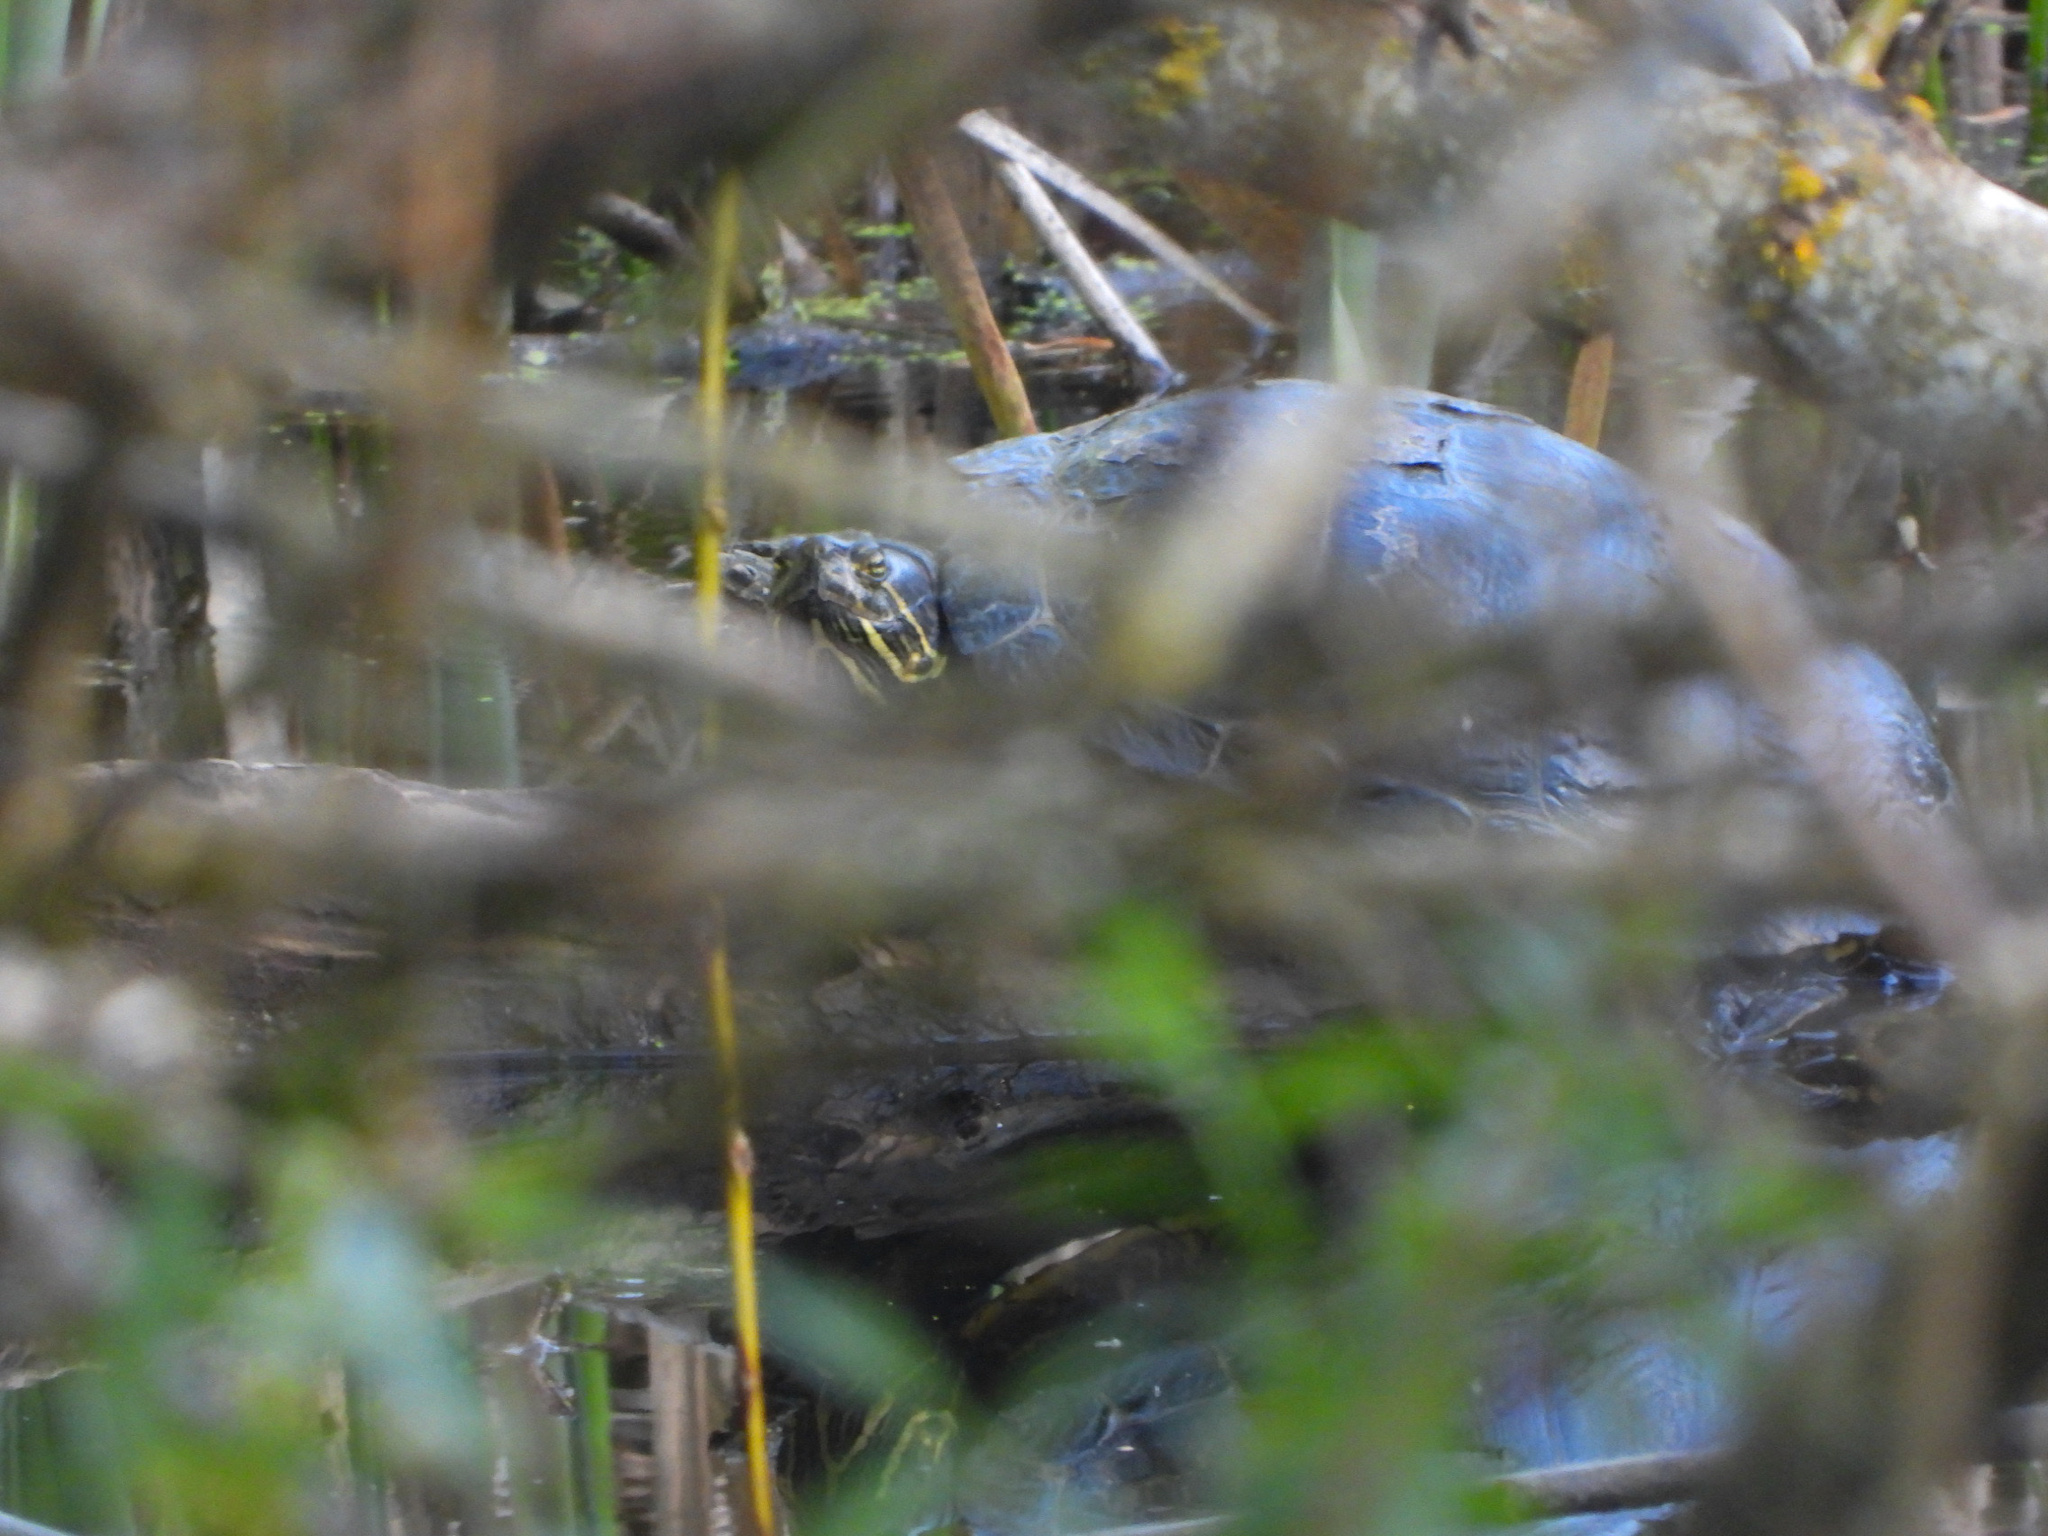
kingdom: Animalia
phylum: Chordata
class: Testudines
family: Emydidae
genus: Trachemys
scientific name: Trachemys scripta
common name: Slider
